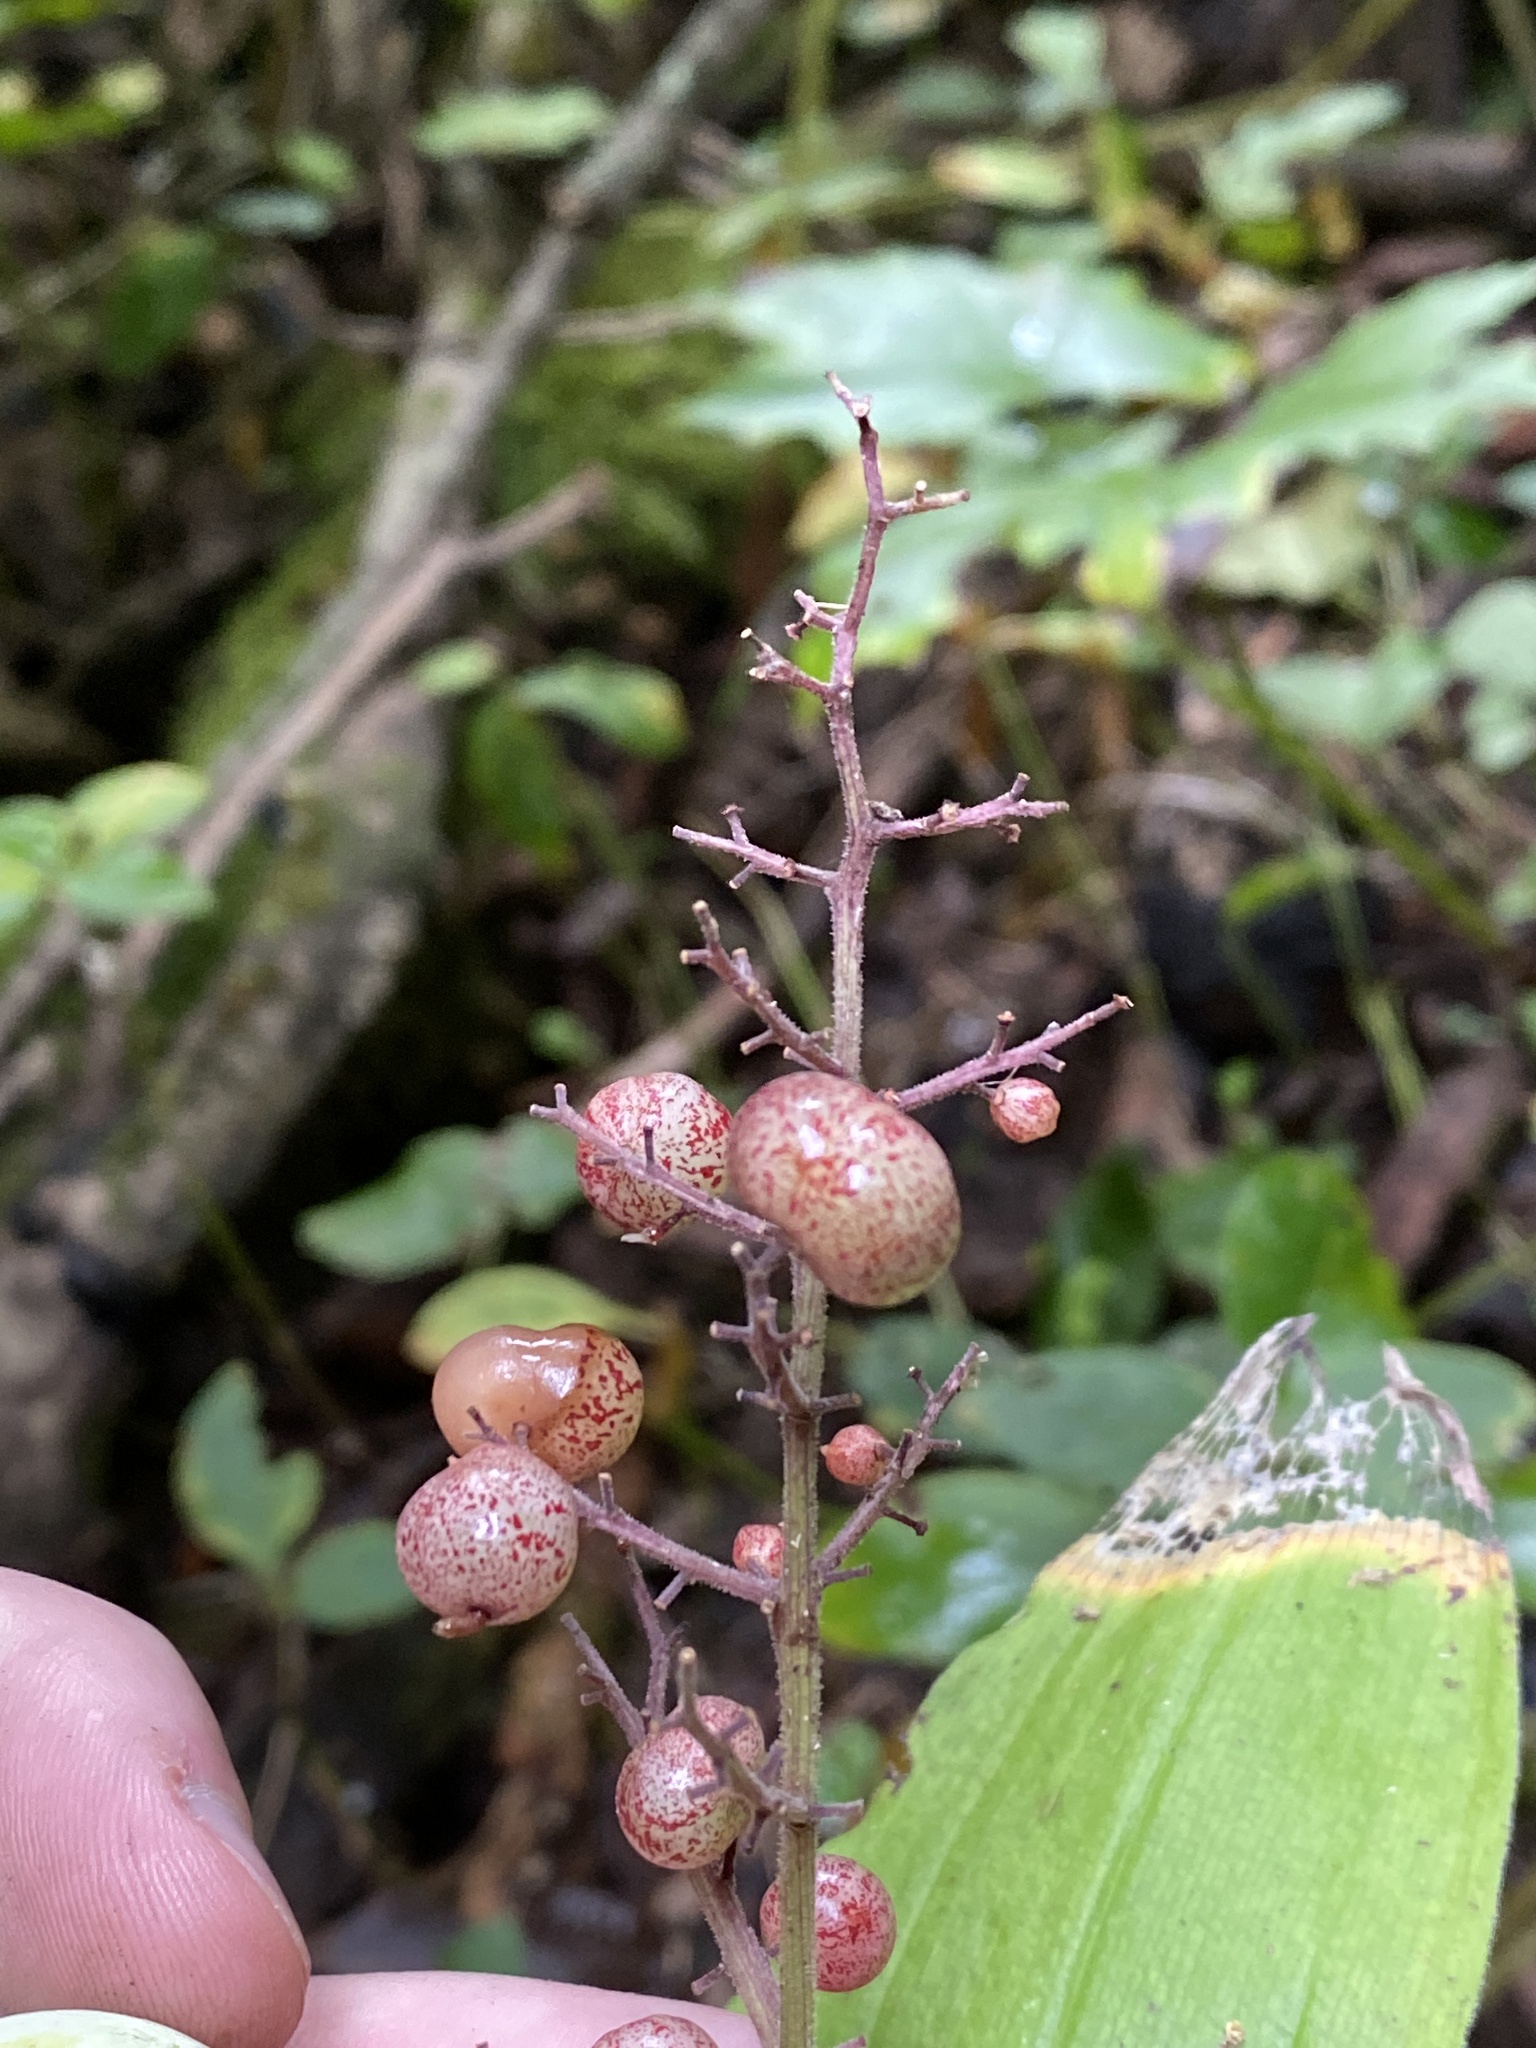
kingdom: Plantae
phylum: Tracheophyta
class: Liliopsida
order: Asparagales
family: Asparagaceae
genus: Maianthemum
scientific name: Maianthemum racemosum
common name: False spikenard
